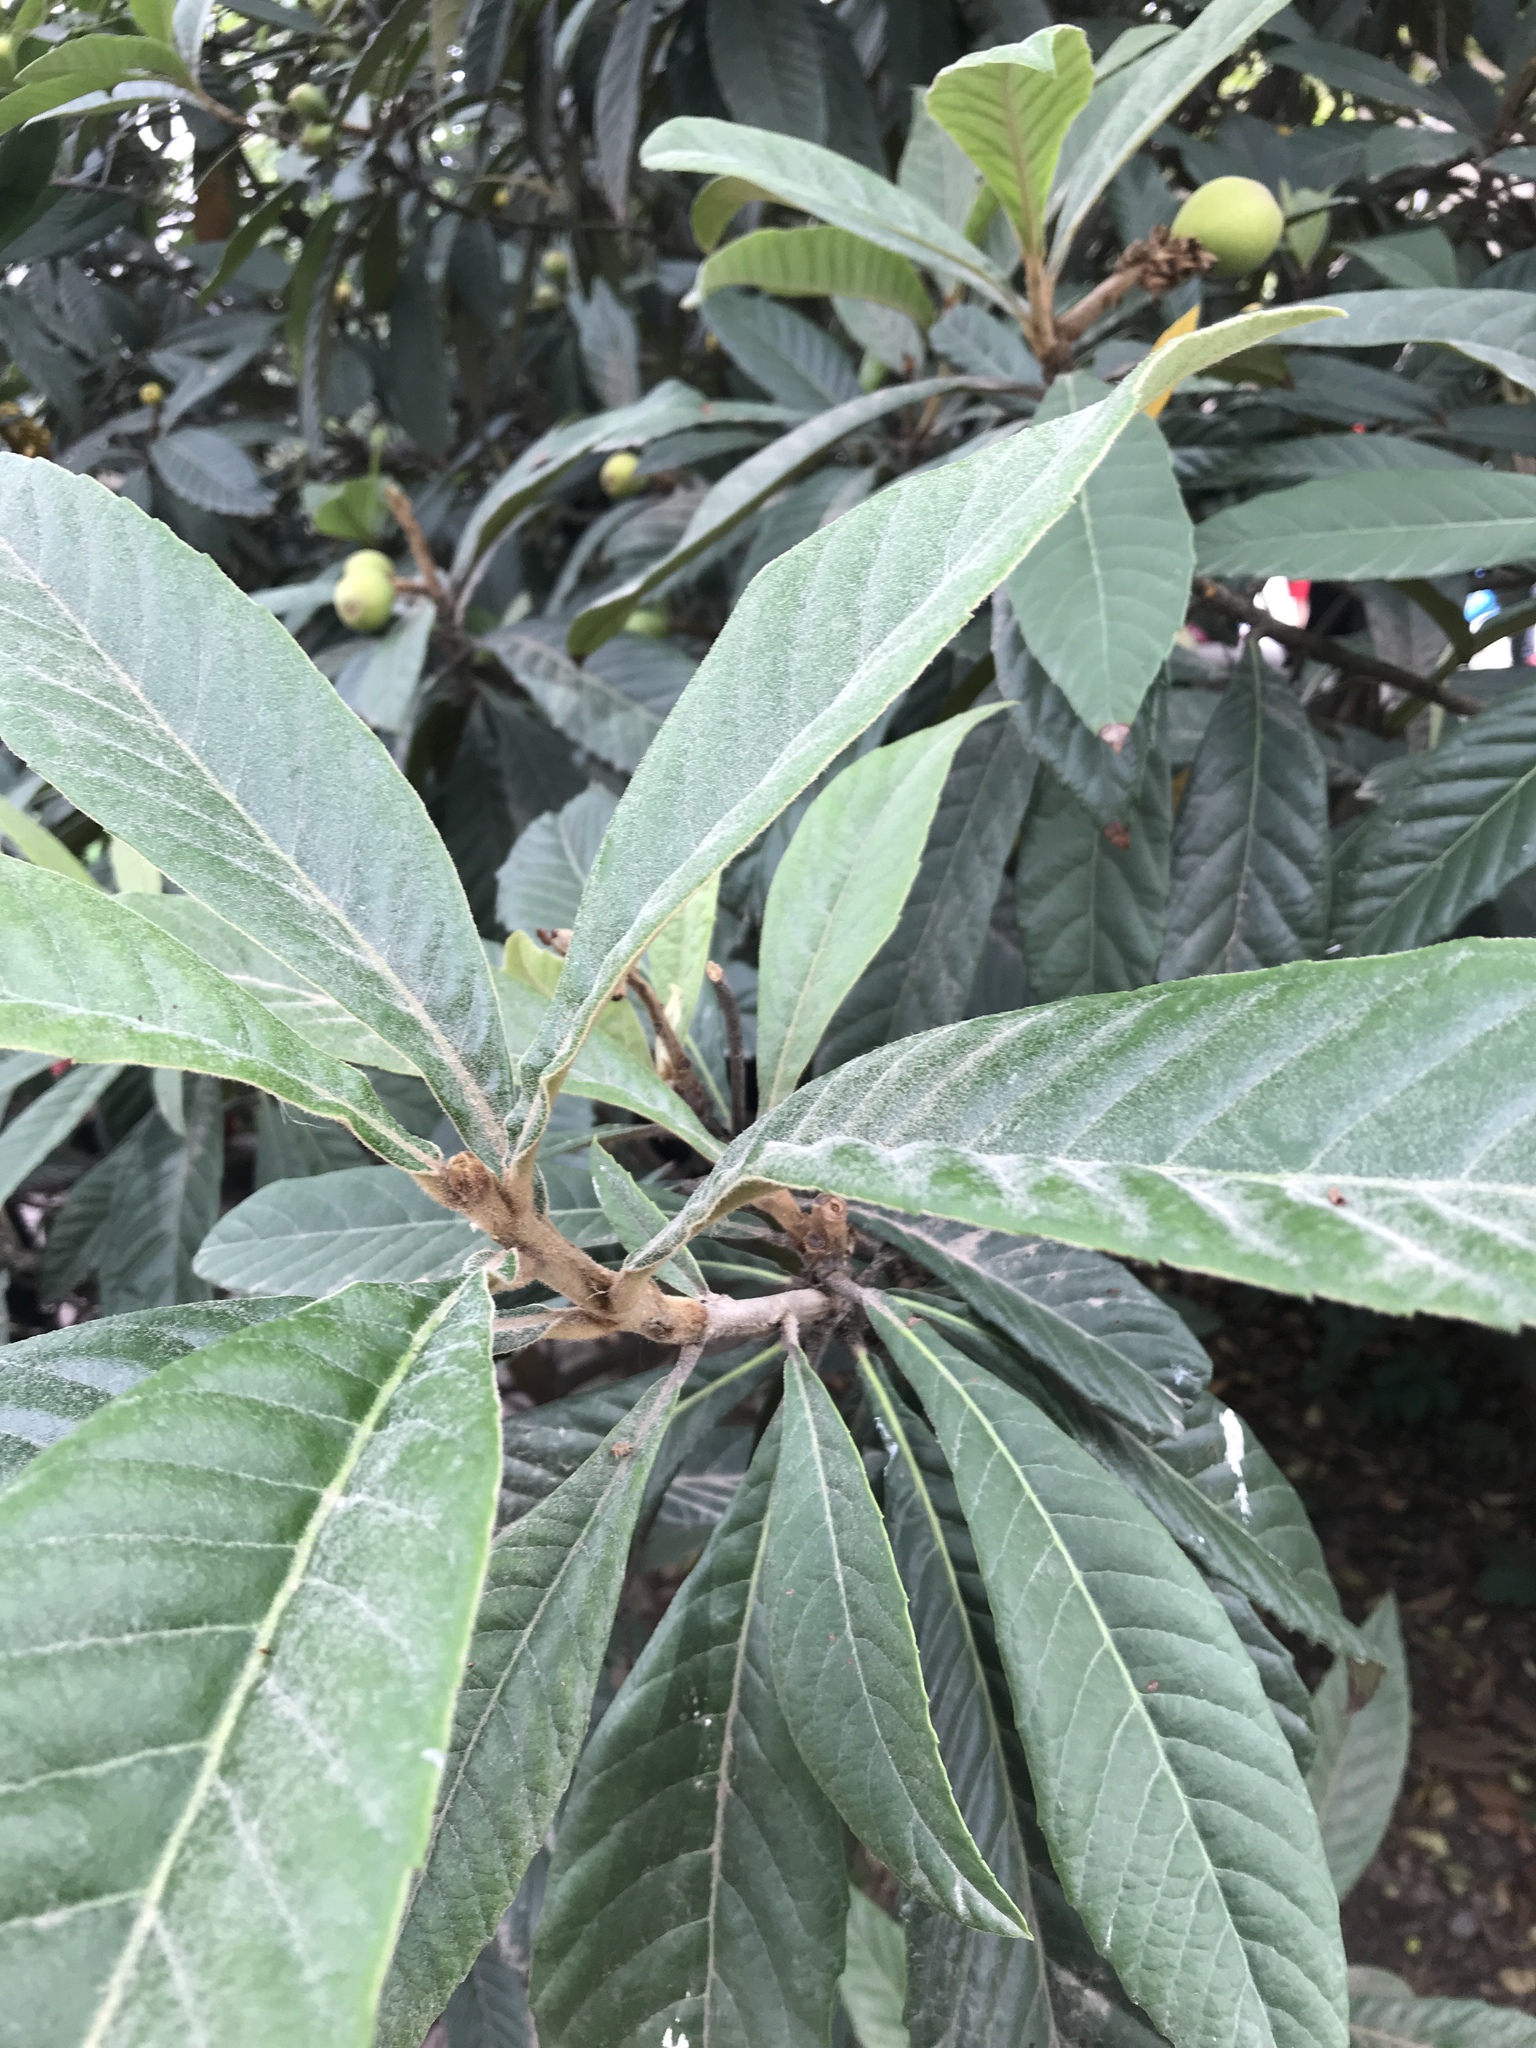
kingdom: Plantae
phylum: Tracheophyta
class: Magnoliopsida
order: Rosales
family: Rosaceae
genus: Rhaphiolepis
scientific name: Rhaphiolepis bibas
